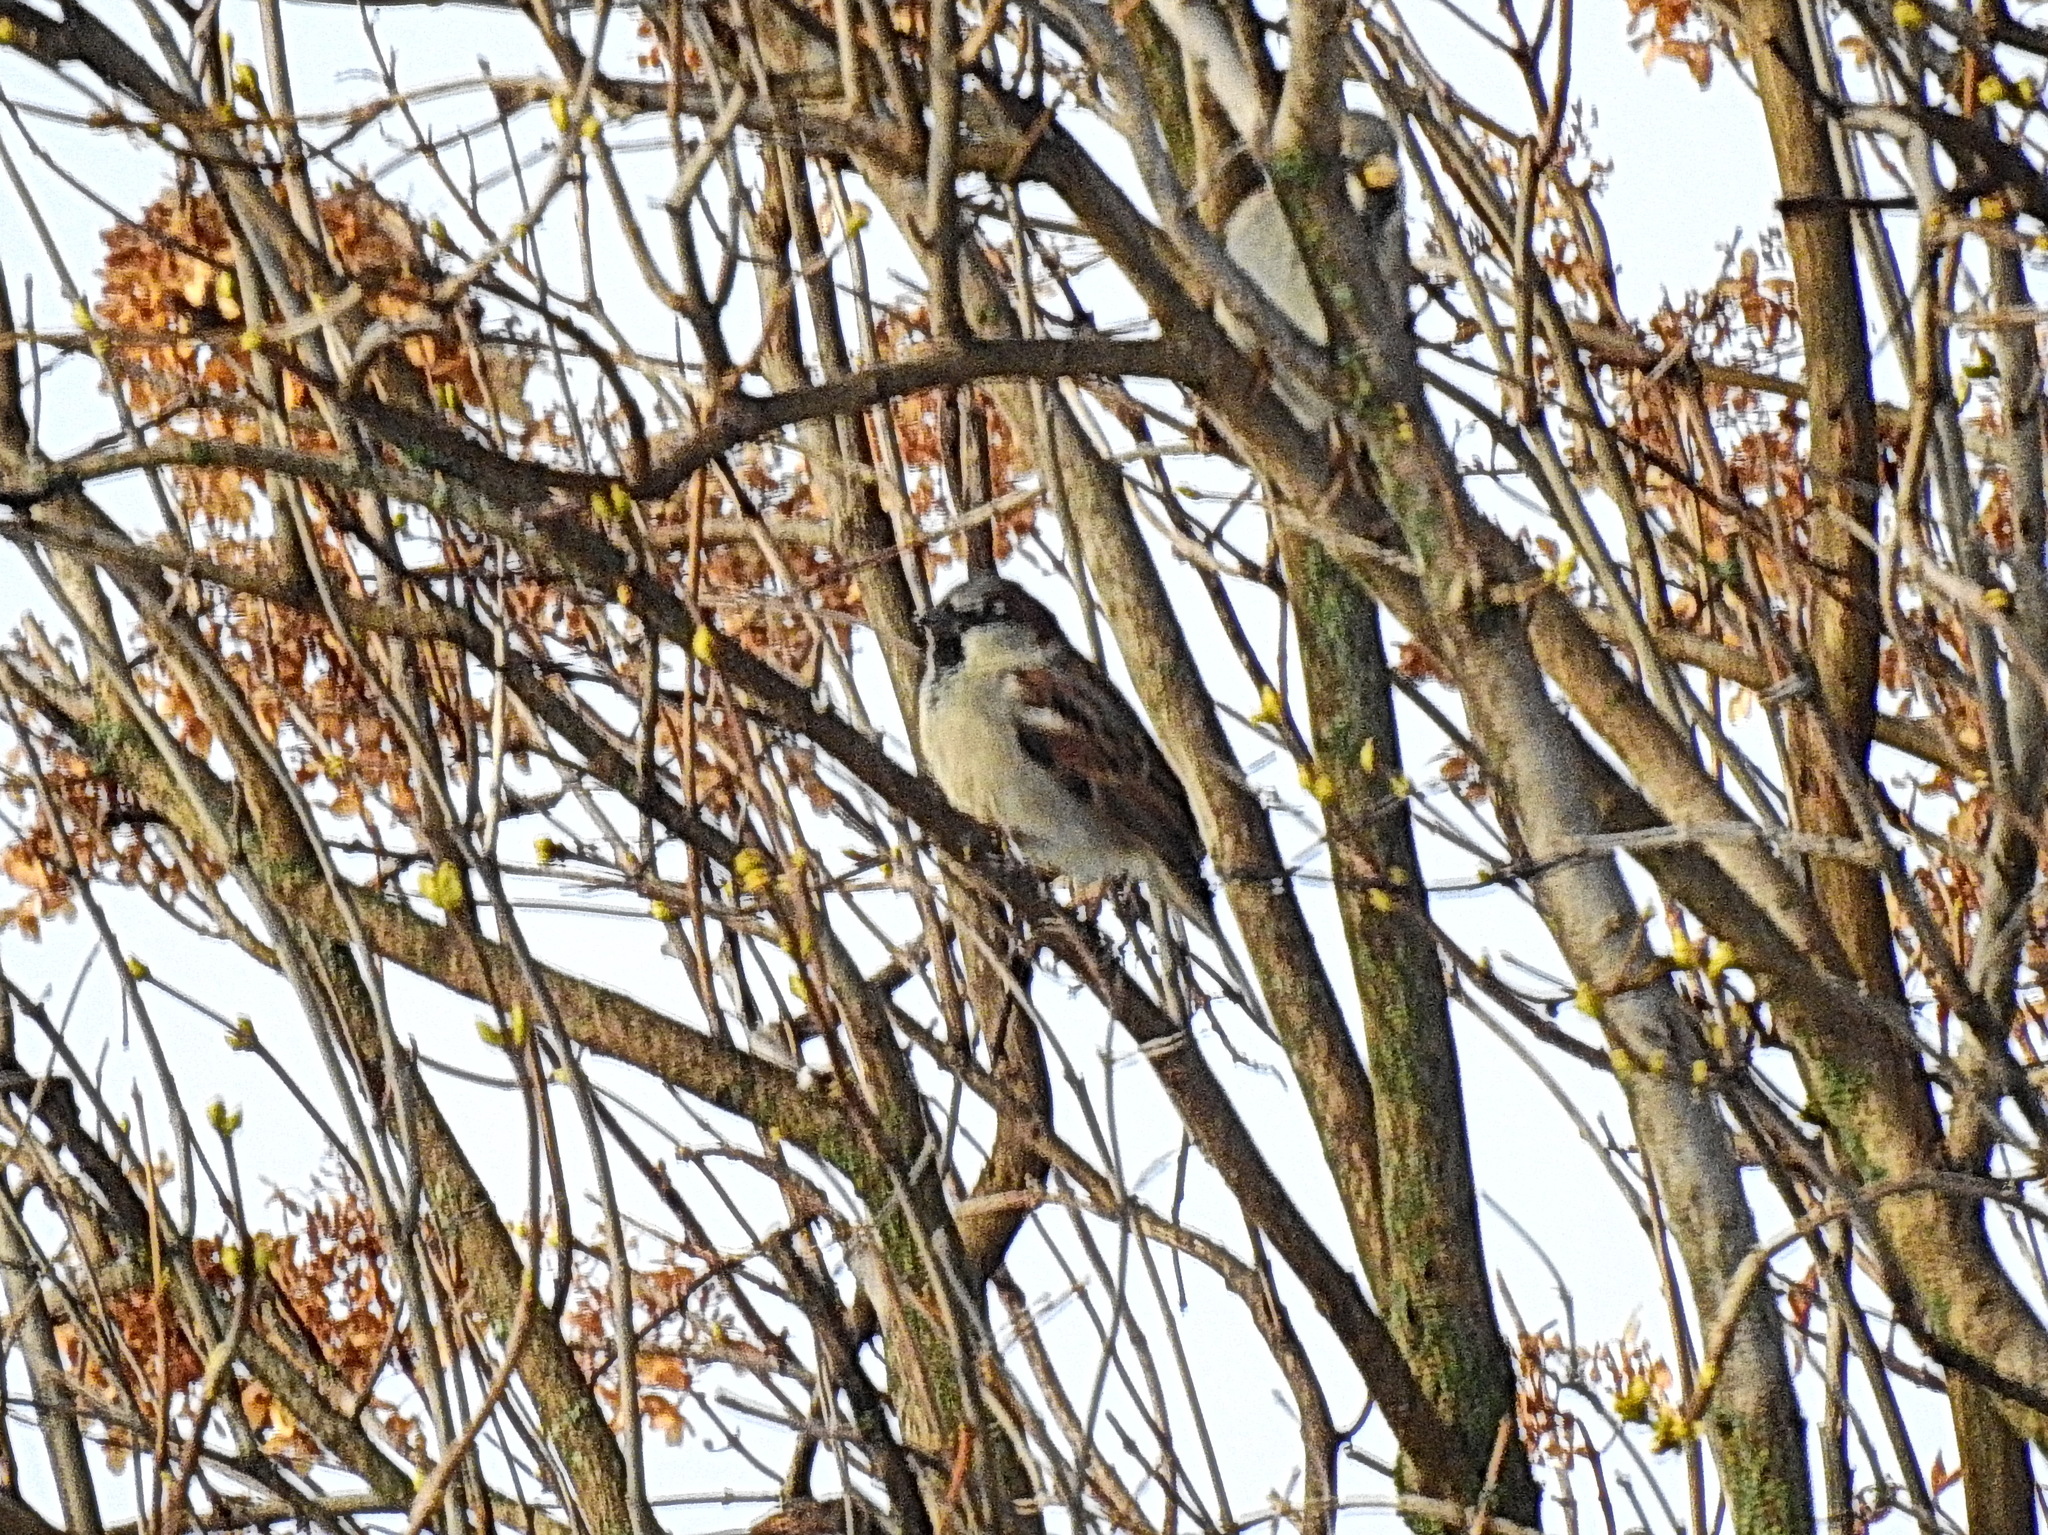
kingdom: Animalia
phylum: Chordata
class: Aves
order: Passeriformes
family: Passeridae
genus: Passer
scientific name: Passer domesticus
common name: House sparrow
